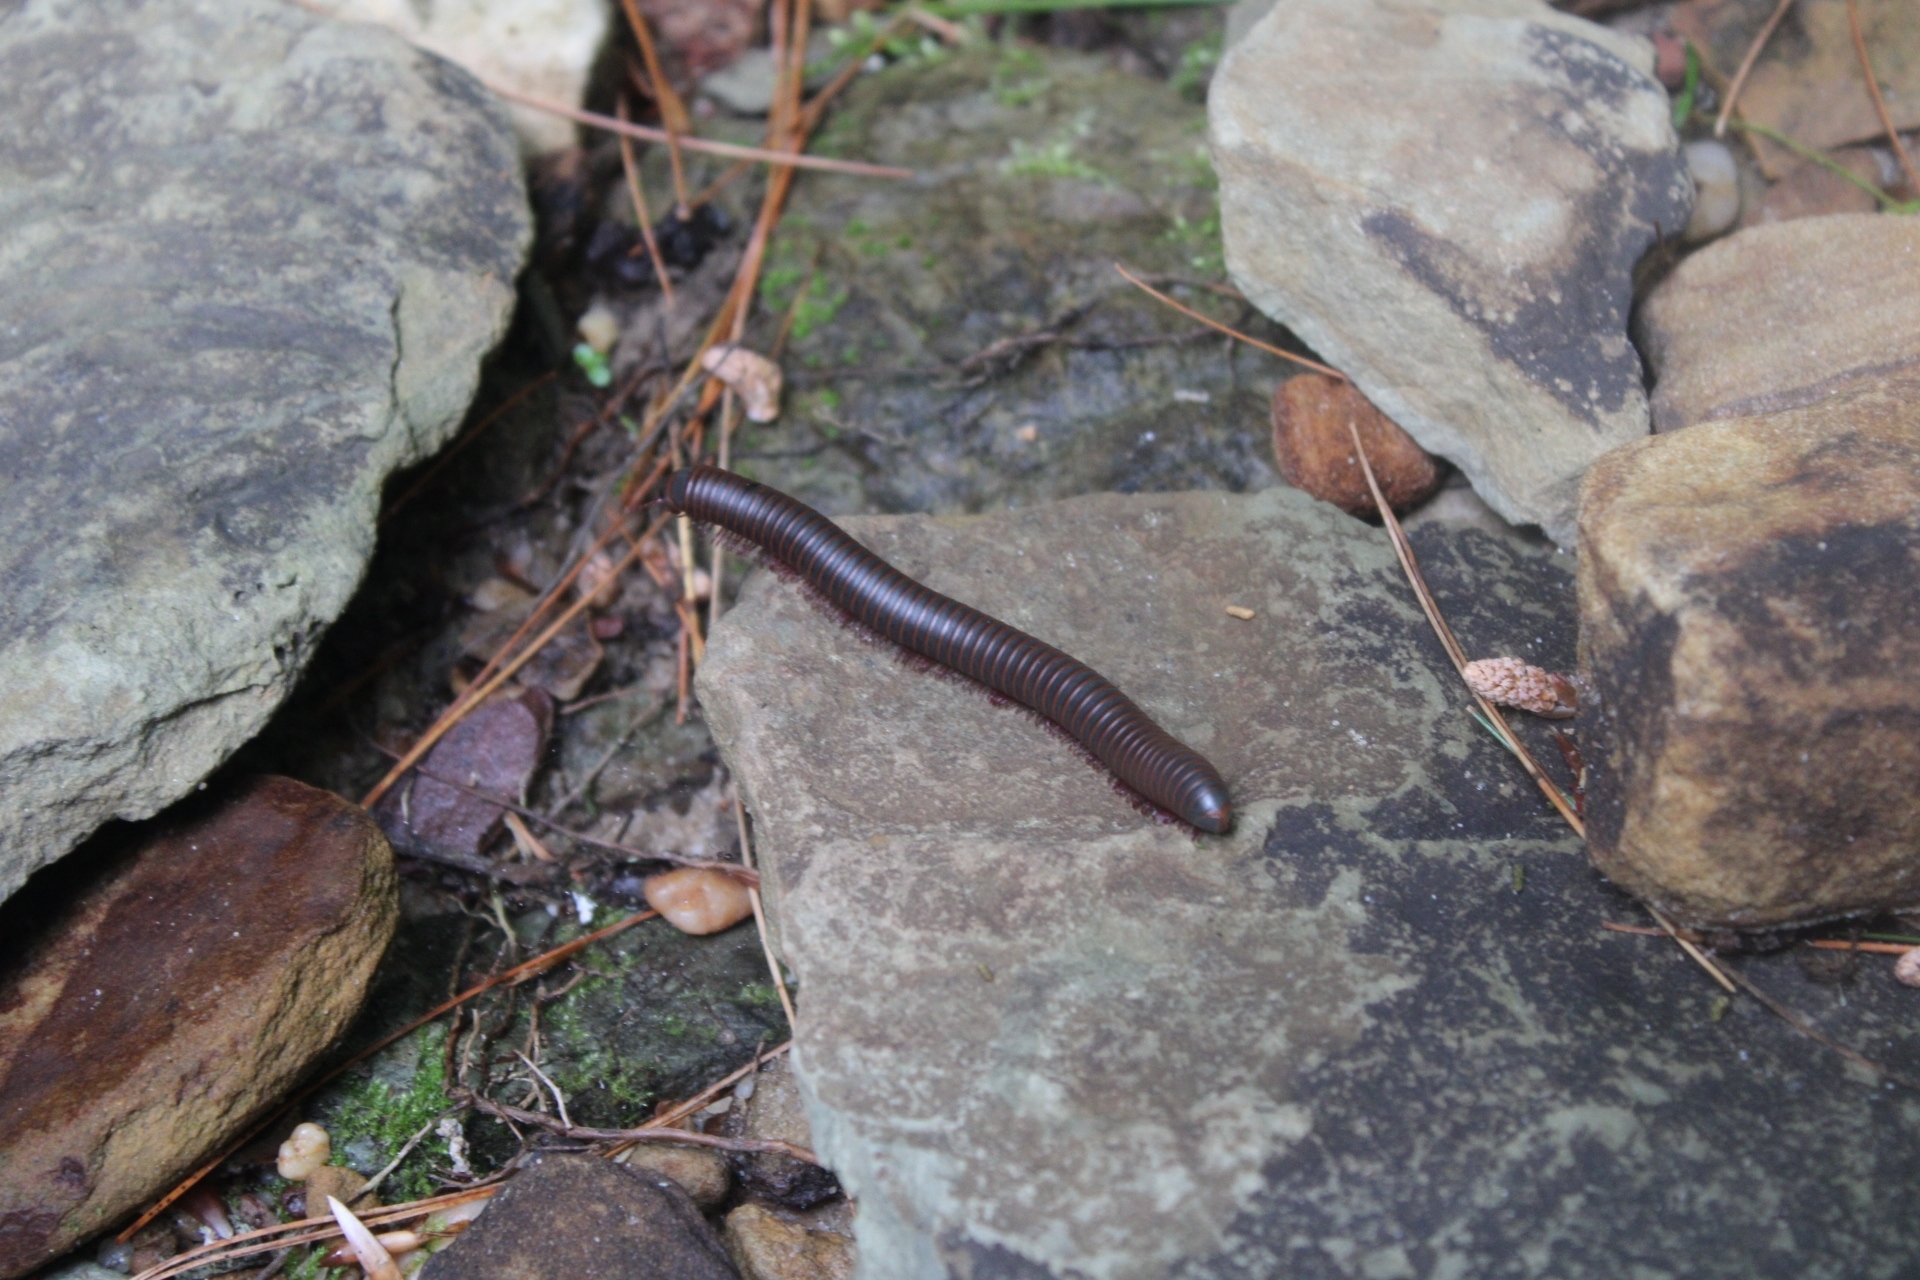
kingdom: Animalia
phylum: Arthropoda
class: Diplopoda
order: Spirobolida
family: Spirobolidae
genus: Narceus
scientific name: Narceus
